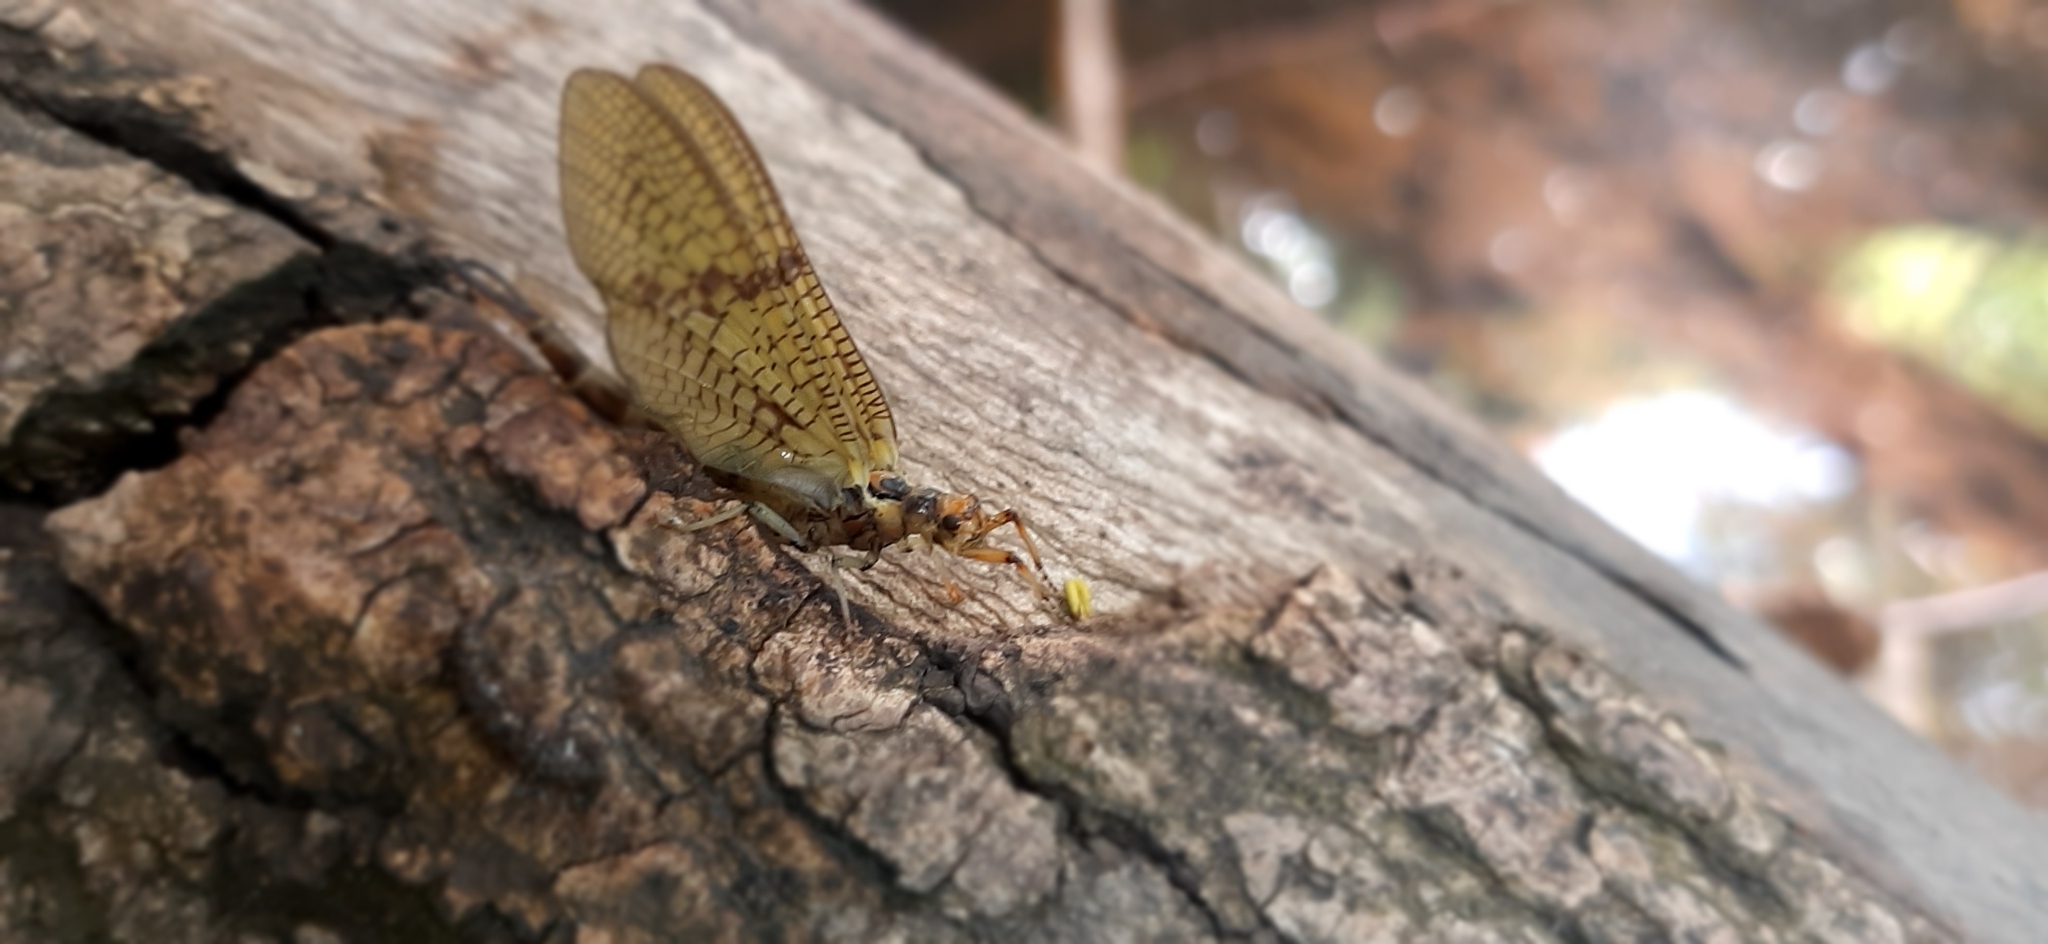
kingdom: Animalia
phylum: Arthropoda
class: Insecta
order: Ephemeroptera
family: Ephemeridae
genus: Ephemera
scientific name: Ephemera danica
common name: Green dun
